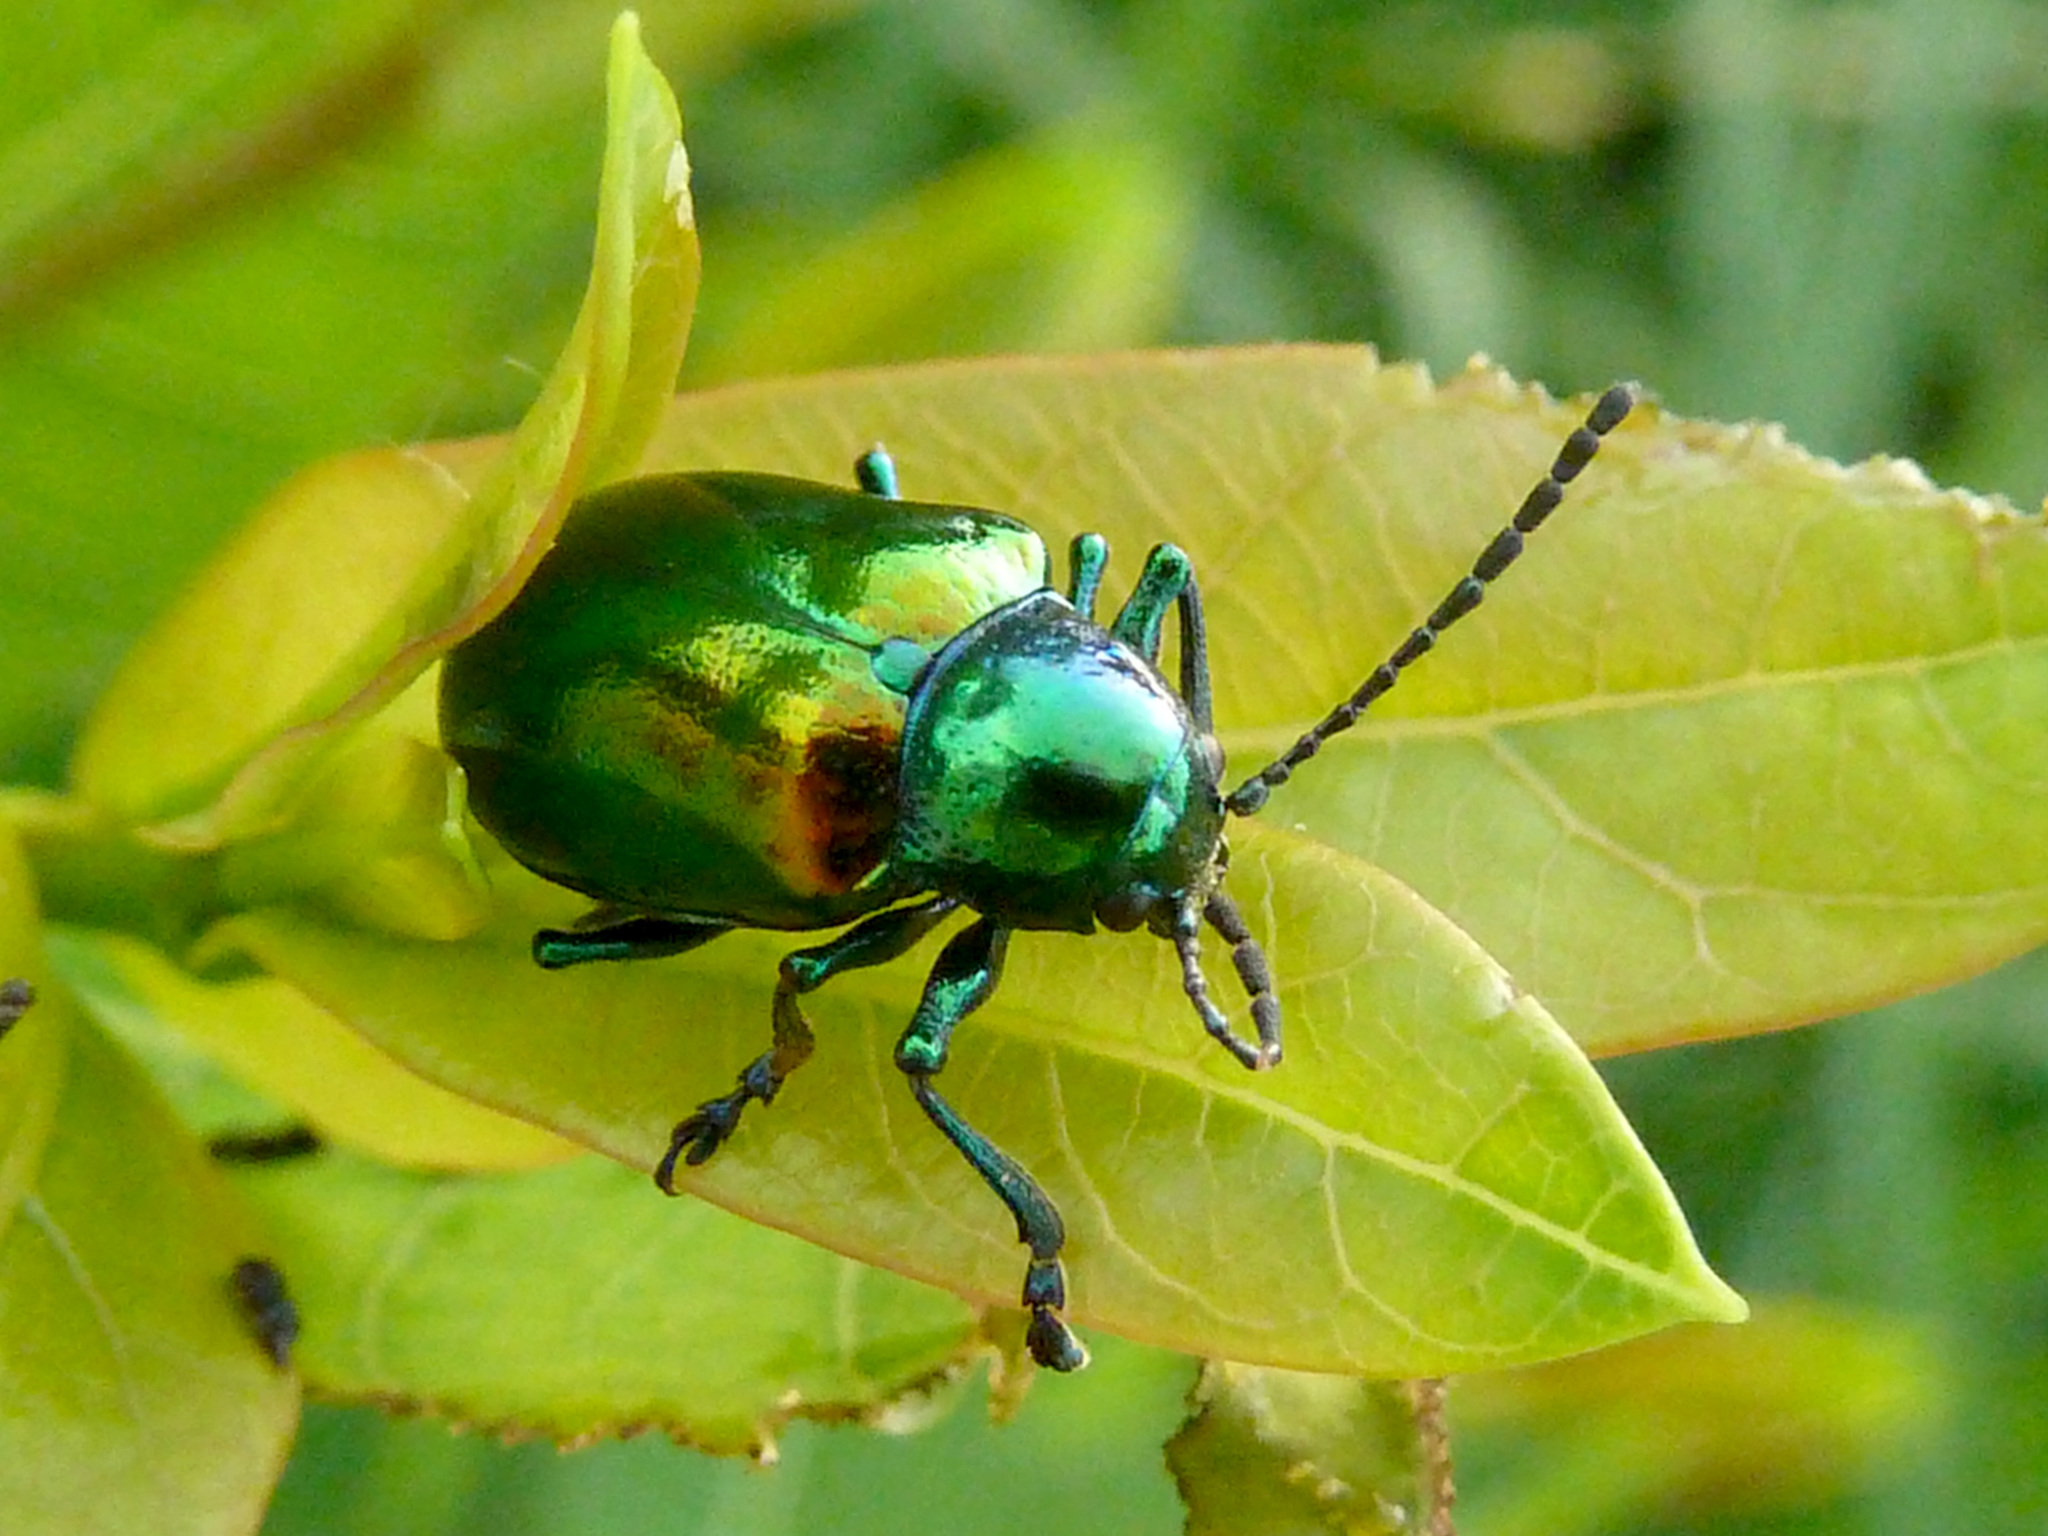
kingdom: Animalia
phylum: Arthropoda
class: Insecta
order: Coleoptera
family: Chrysomelidae
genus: Chrysochus
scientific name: Chrysochus auratus
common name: Dogbane leaf beetle
